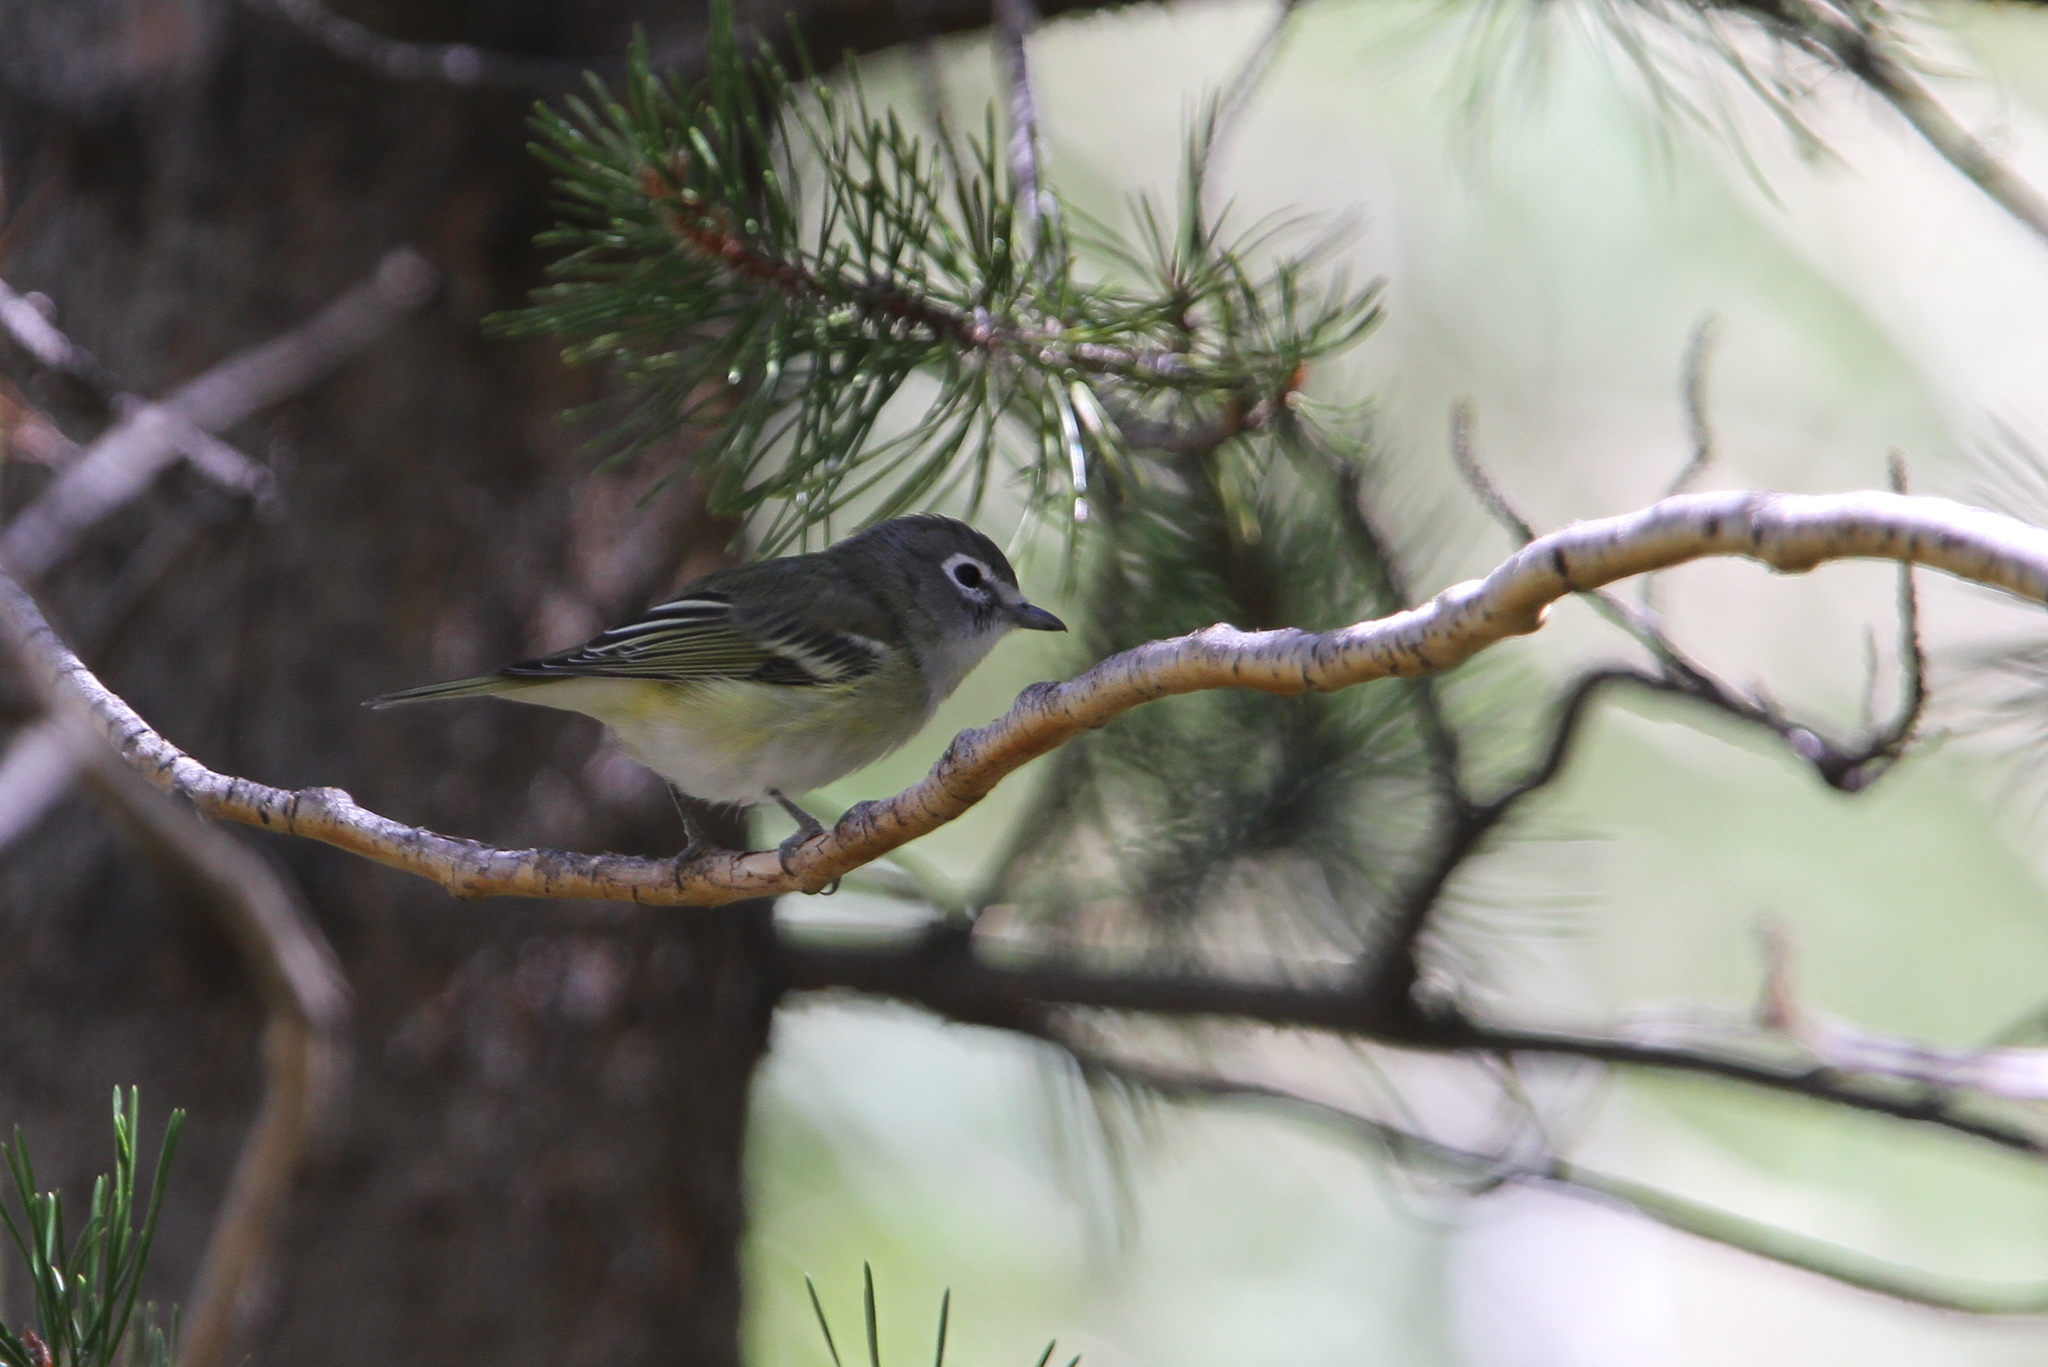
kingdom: Animalia
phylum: Chordata
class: Aves
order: Passeriformes
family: Vireonidae
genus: Vireo
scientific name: Vireo cassinii
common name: Cassin's vireo
